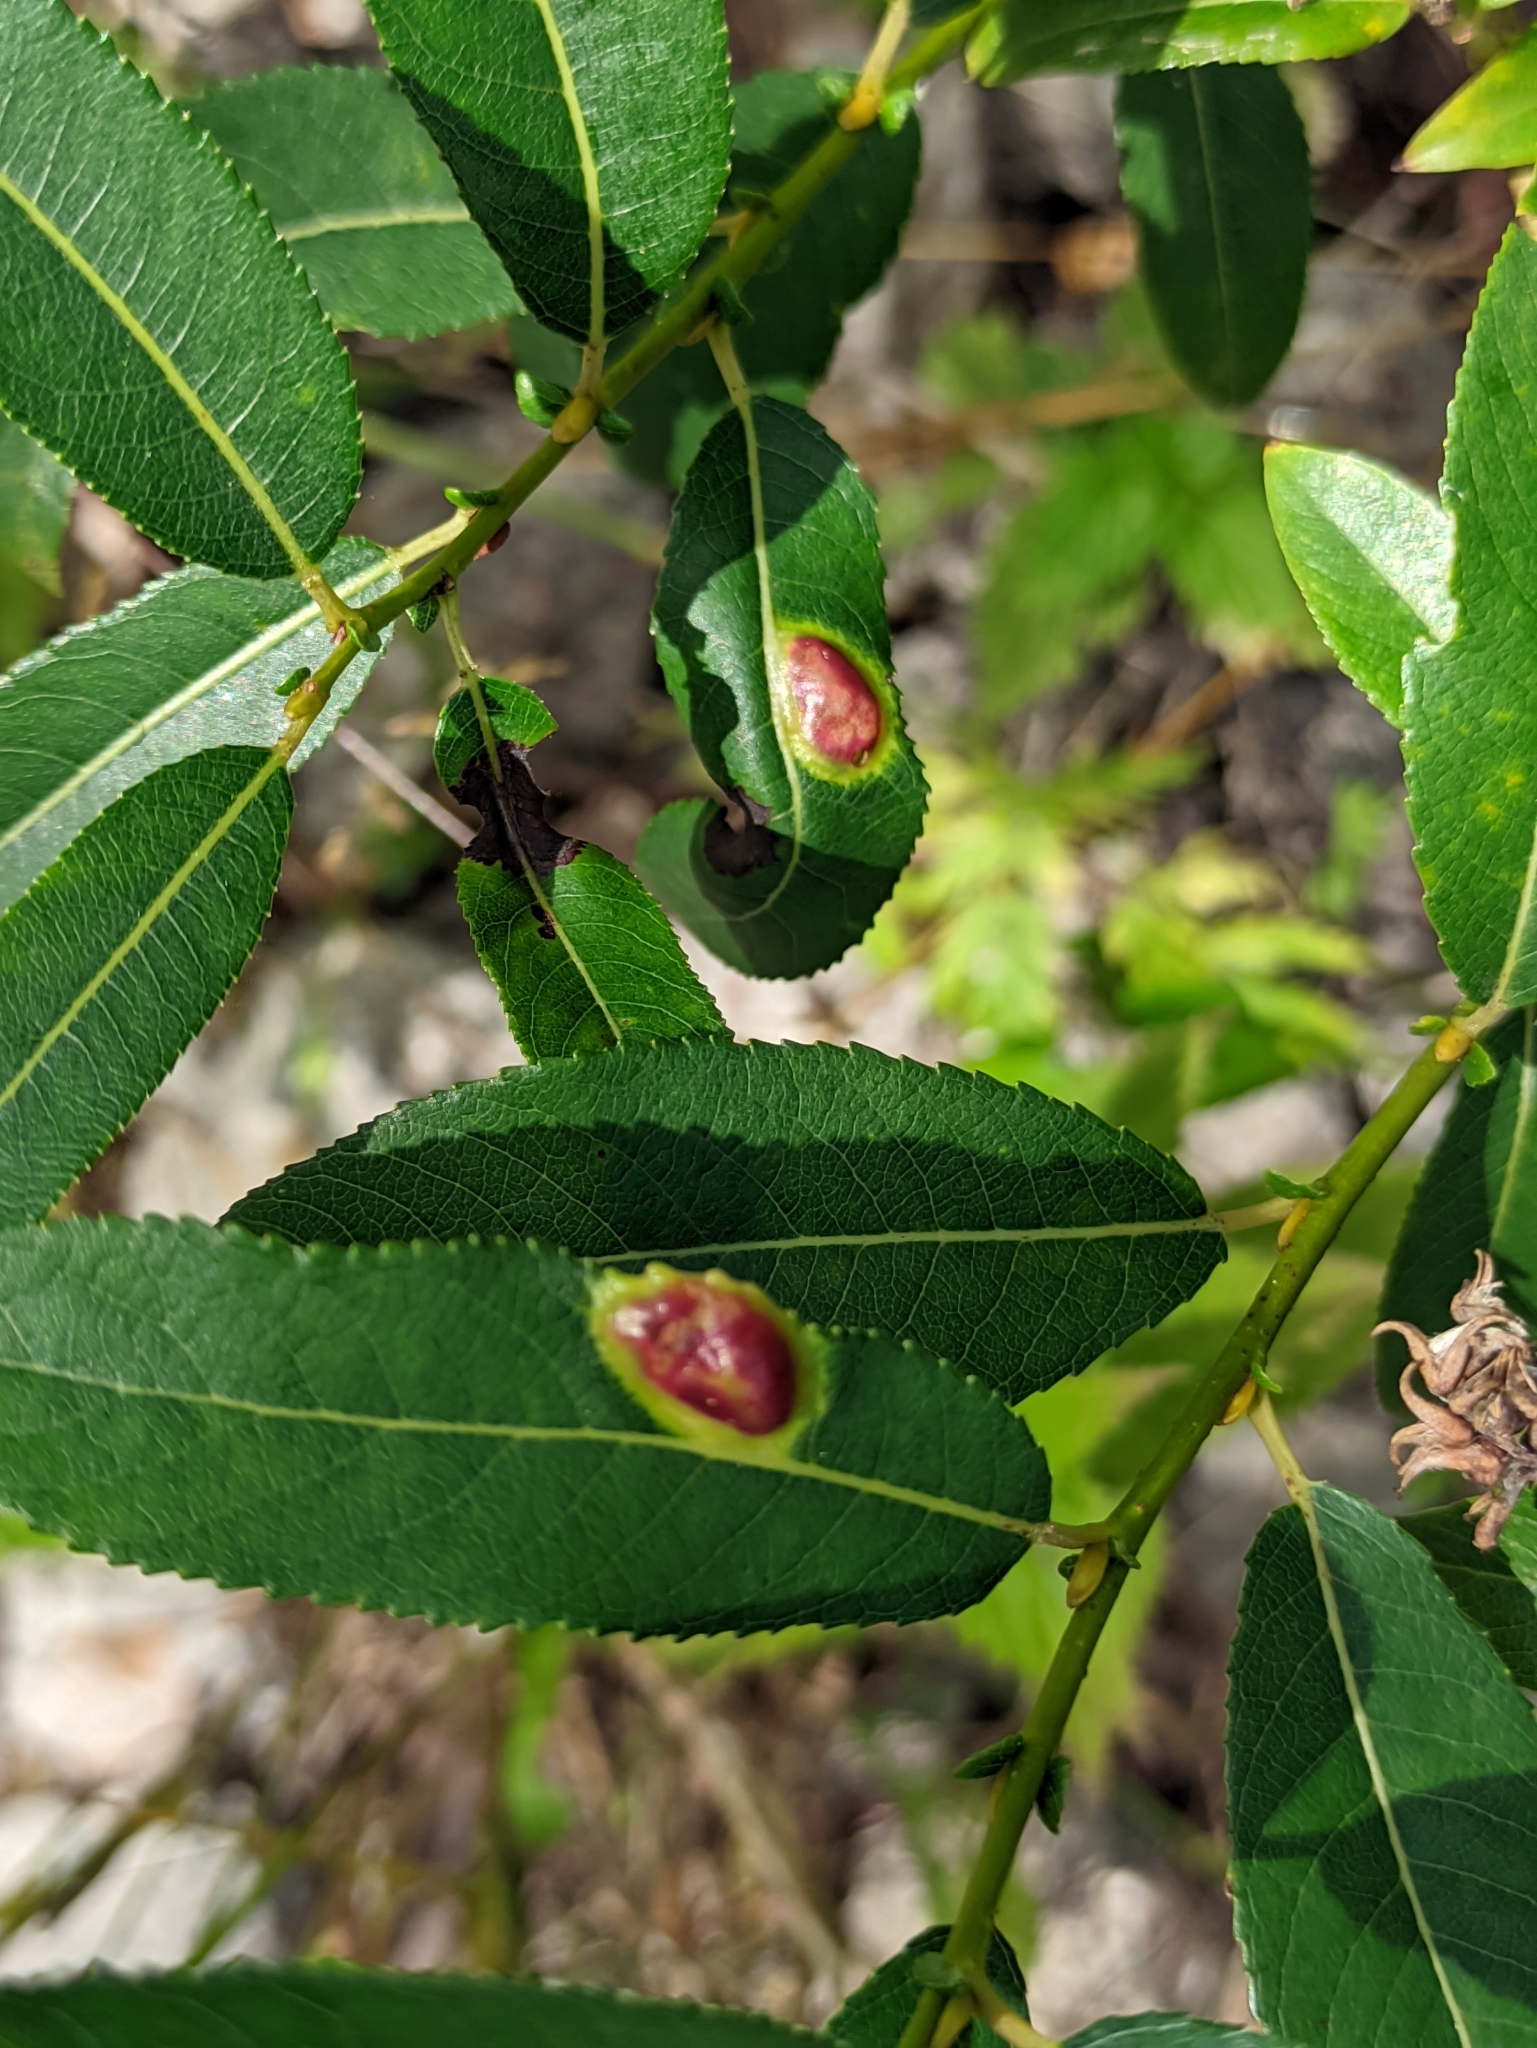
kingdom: Animalia
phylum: Arthropoda
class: Insecta
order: Hymenoptera
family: Tenthredinidae
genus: Pontania
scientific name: Pontania triandrae
